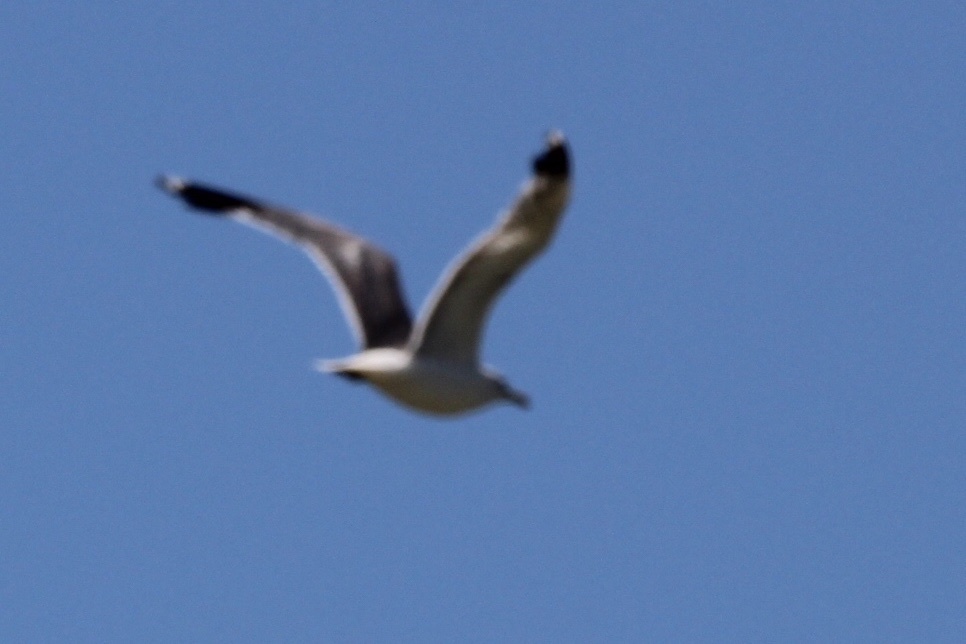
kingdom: Animalia
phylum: Chordata
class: Aves
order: Charadriiformes
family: Laridae
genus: Larus
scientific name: Larus californicus
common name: California gull
